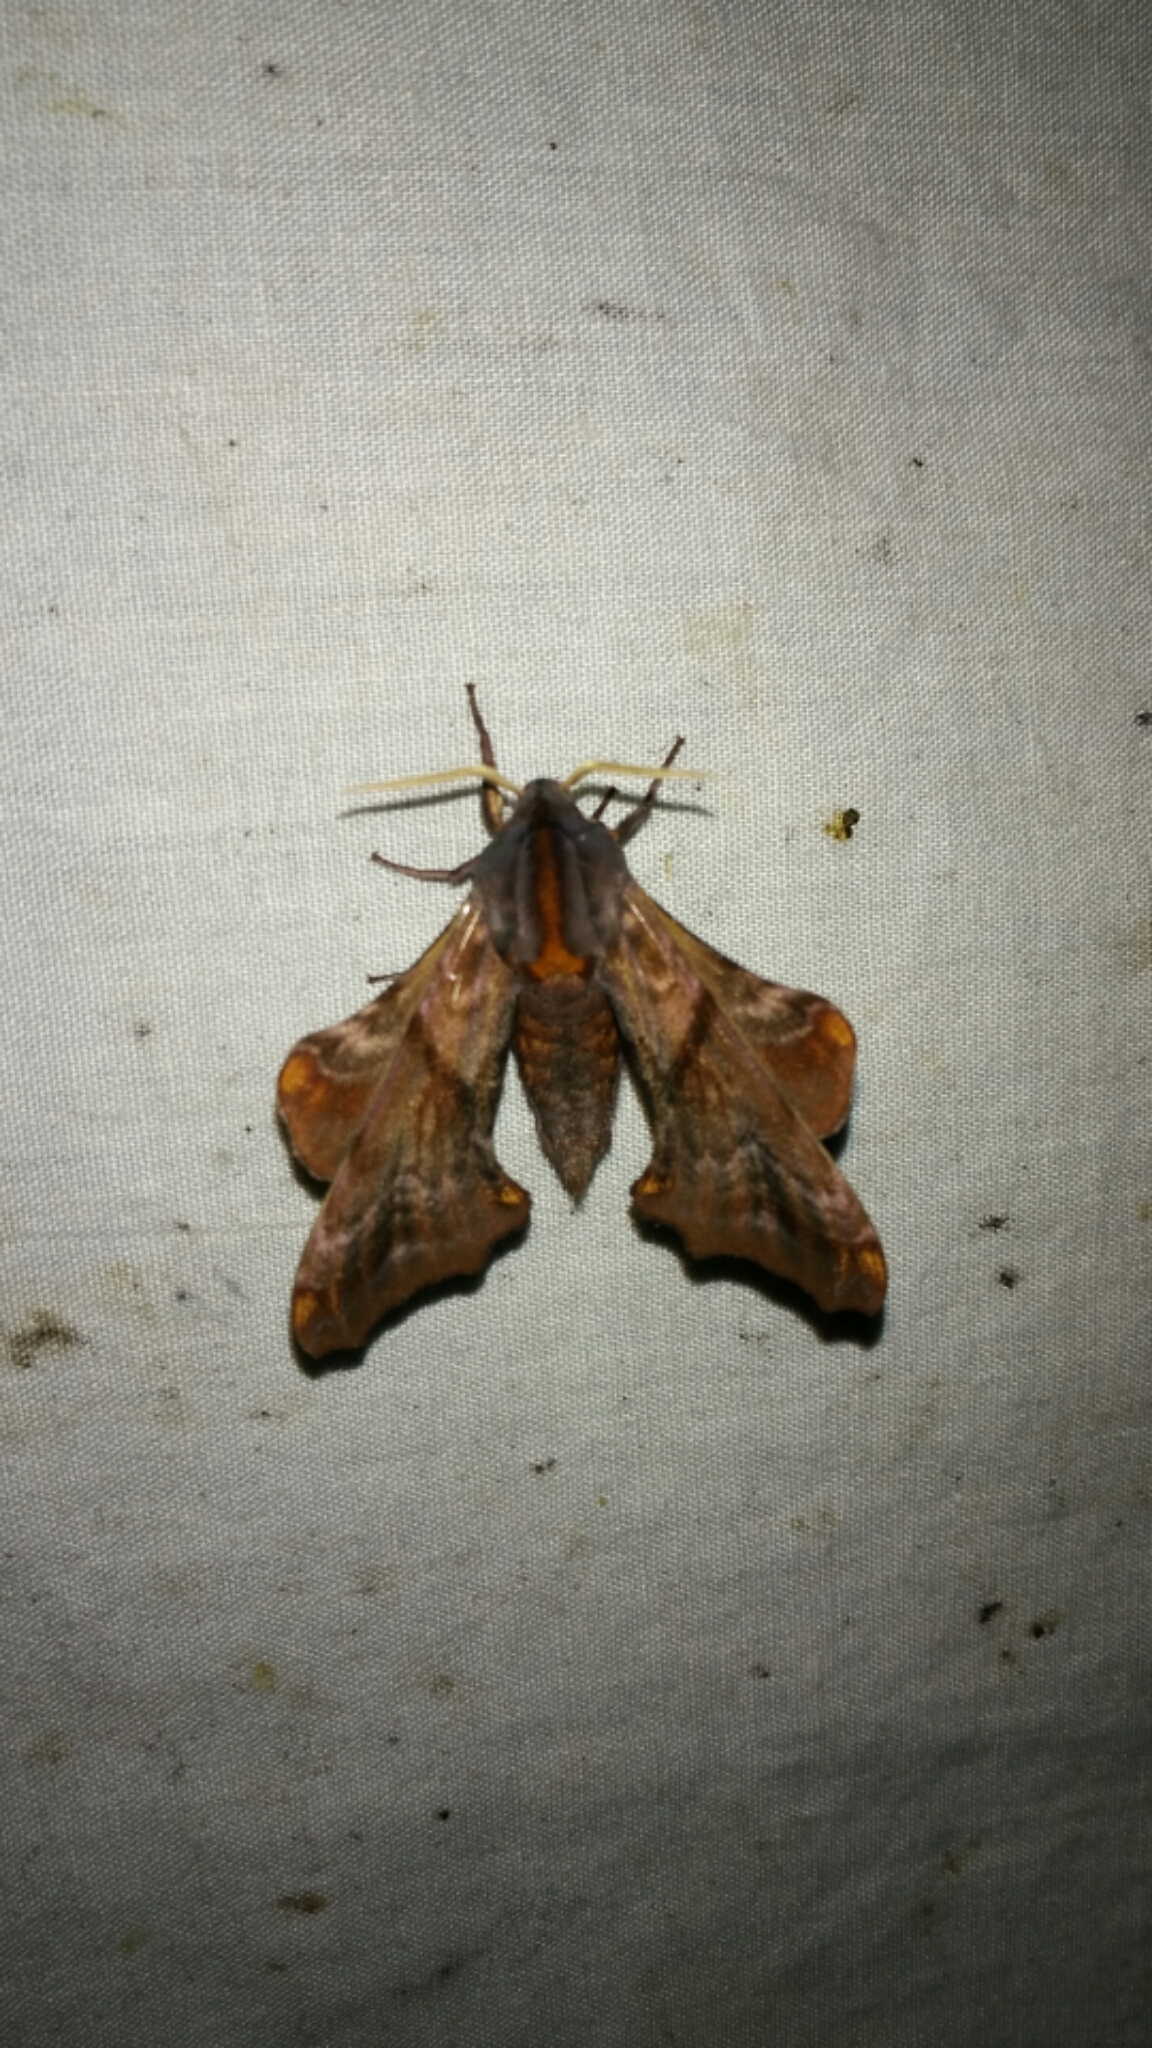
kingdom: Animalia
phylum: Arthropoda
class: Insecta
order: Lepidoptera
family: Sphingidae
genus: Paonias
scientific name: Paonias myops
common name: Small-eyed sphinx
